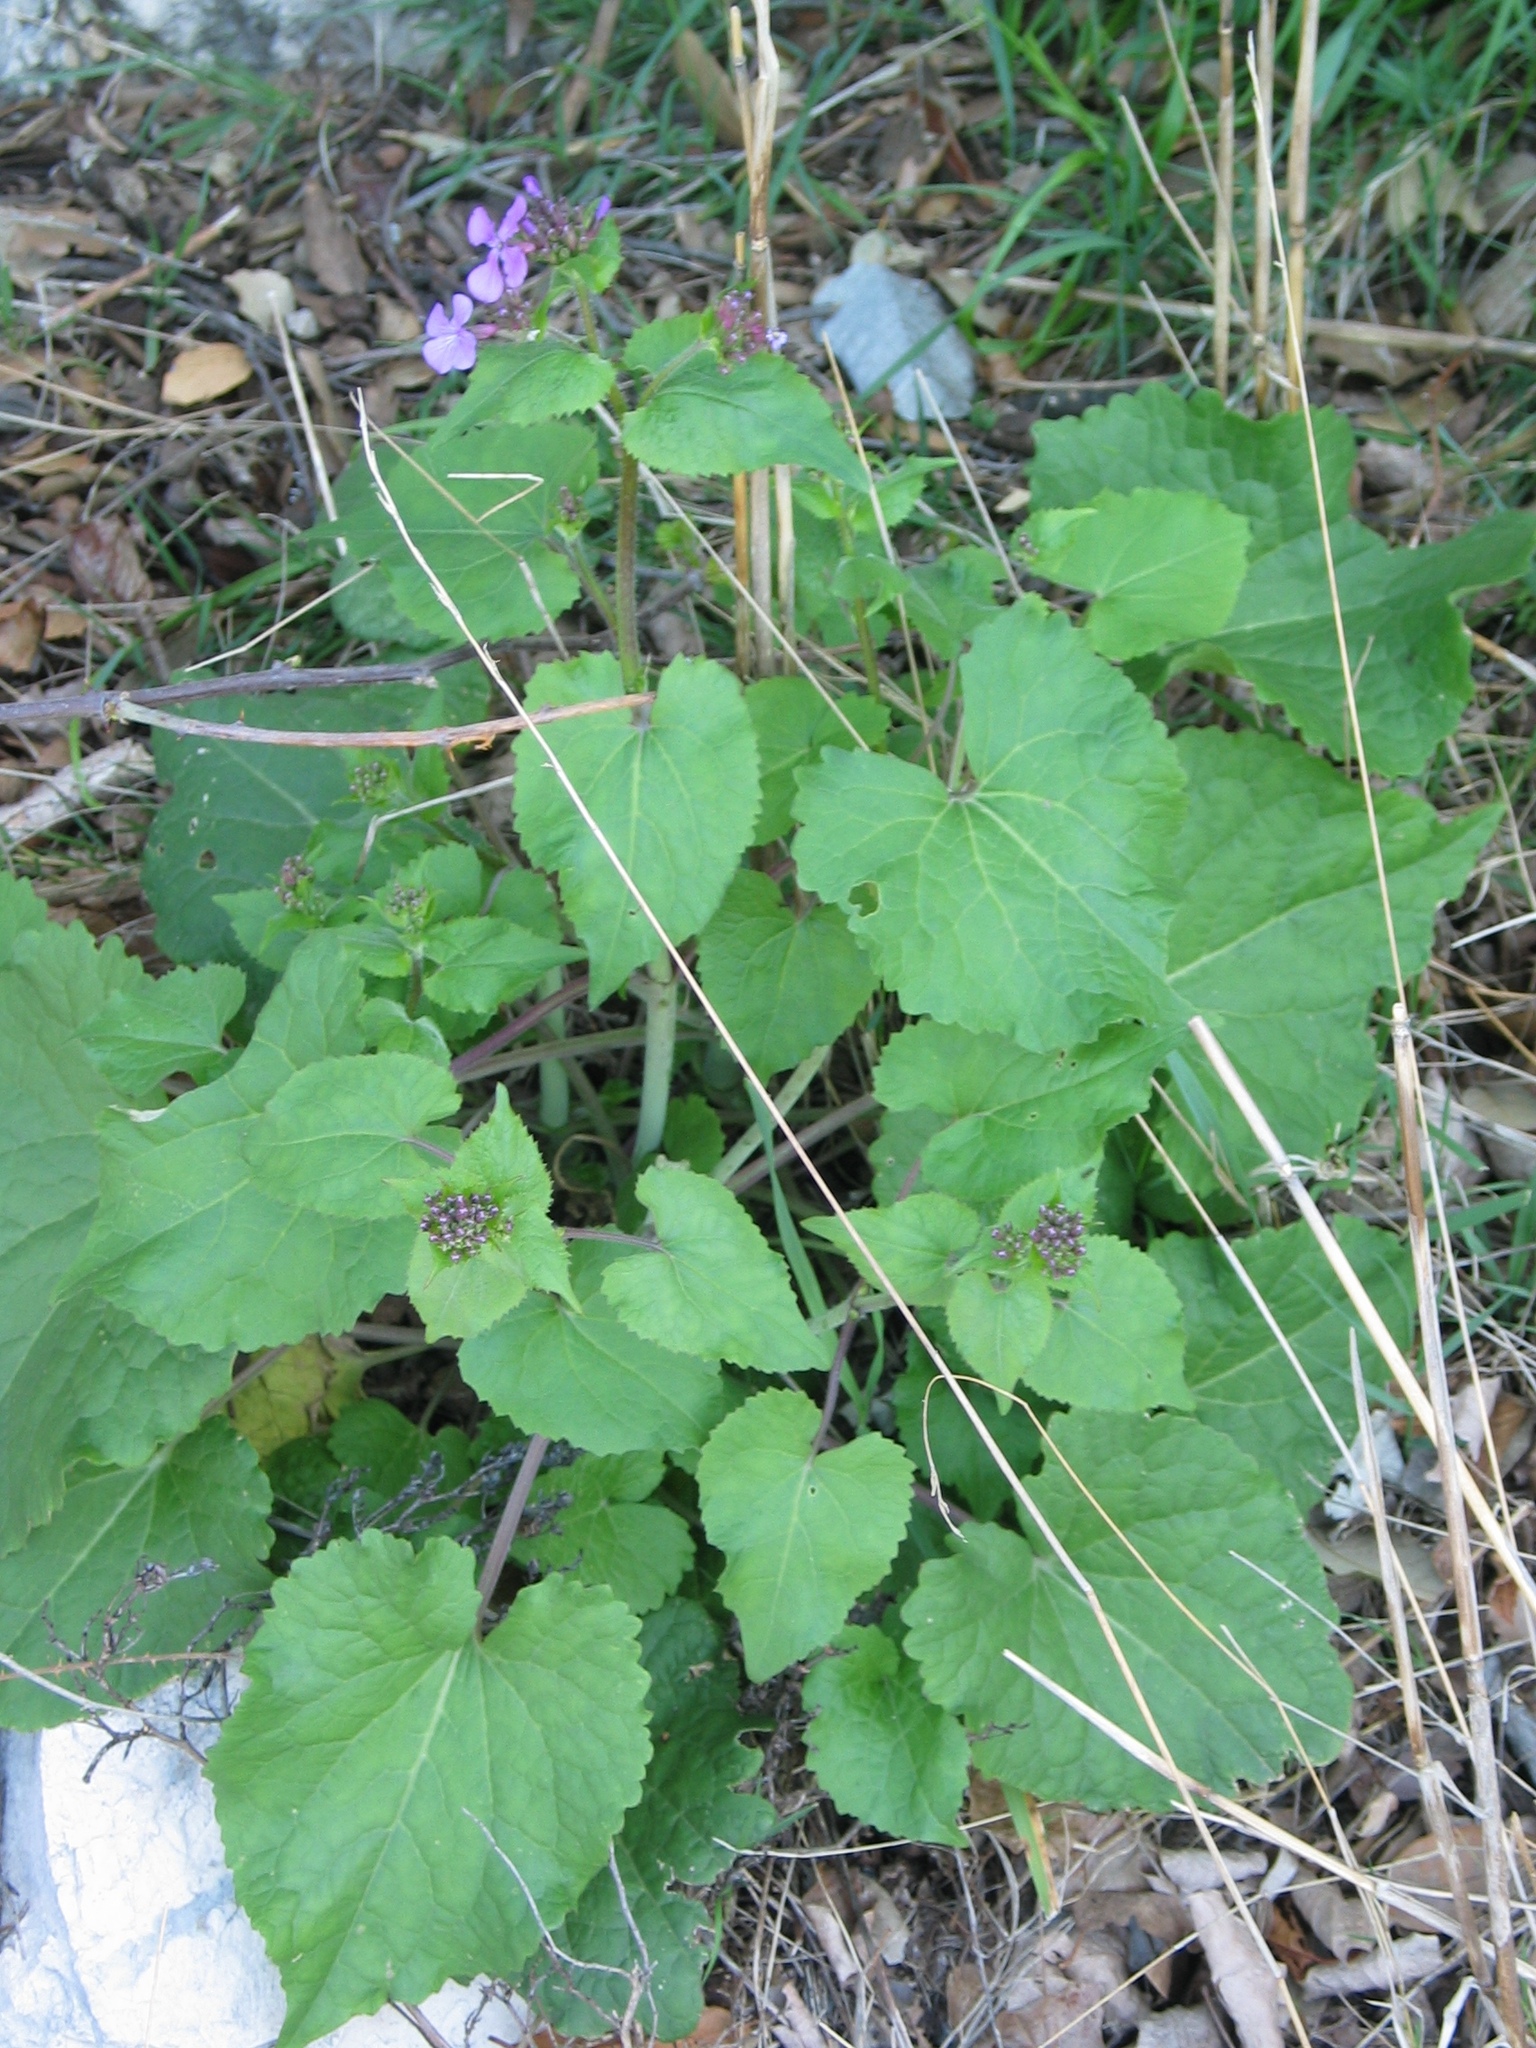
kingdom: Plantae
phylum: Tracheophyta
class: Magnoliopsida
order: Brassicales
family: Brassicaceae
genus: Lunaria
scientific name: Lunaria annua
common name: Honesty
